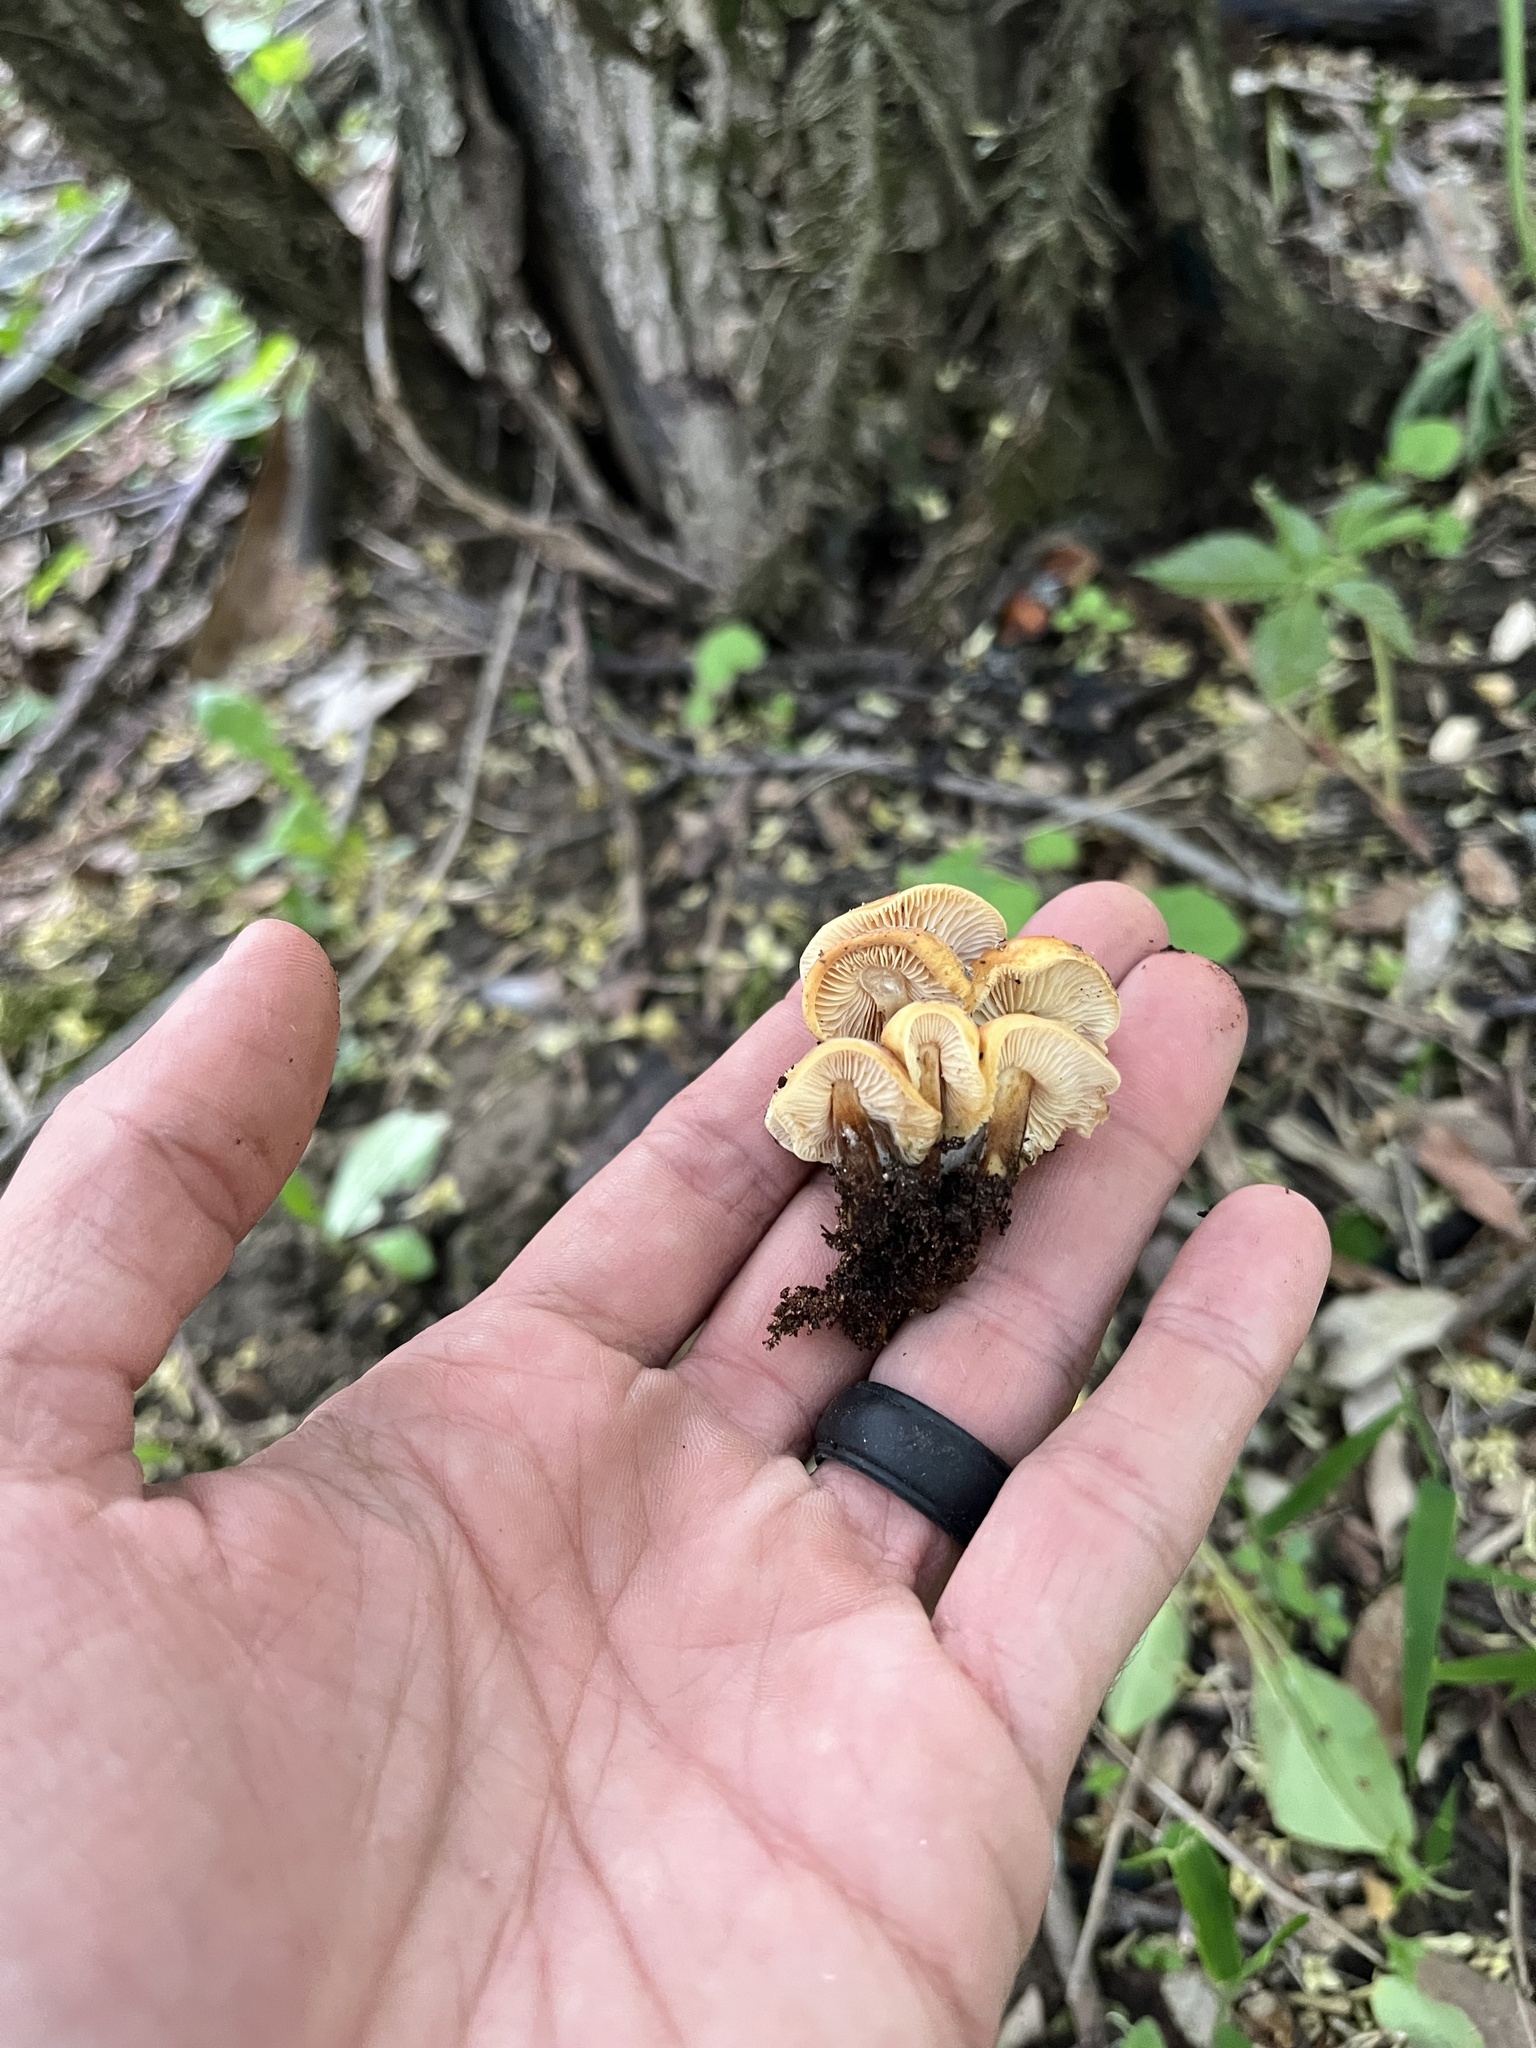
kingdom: Fungi
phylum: Basidiomycota
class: Agaricomycetes
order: Agaricales
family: Physalacriaceae
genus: Flammulina
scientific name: Flammulina velutipes
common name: Velvet shank
